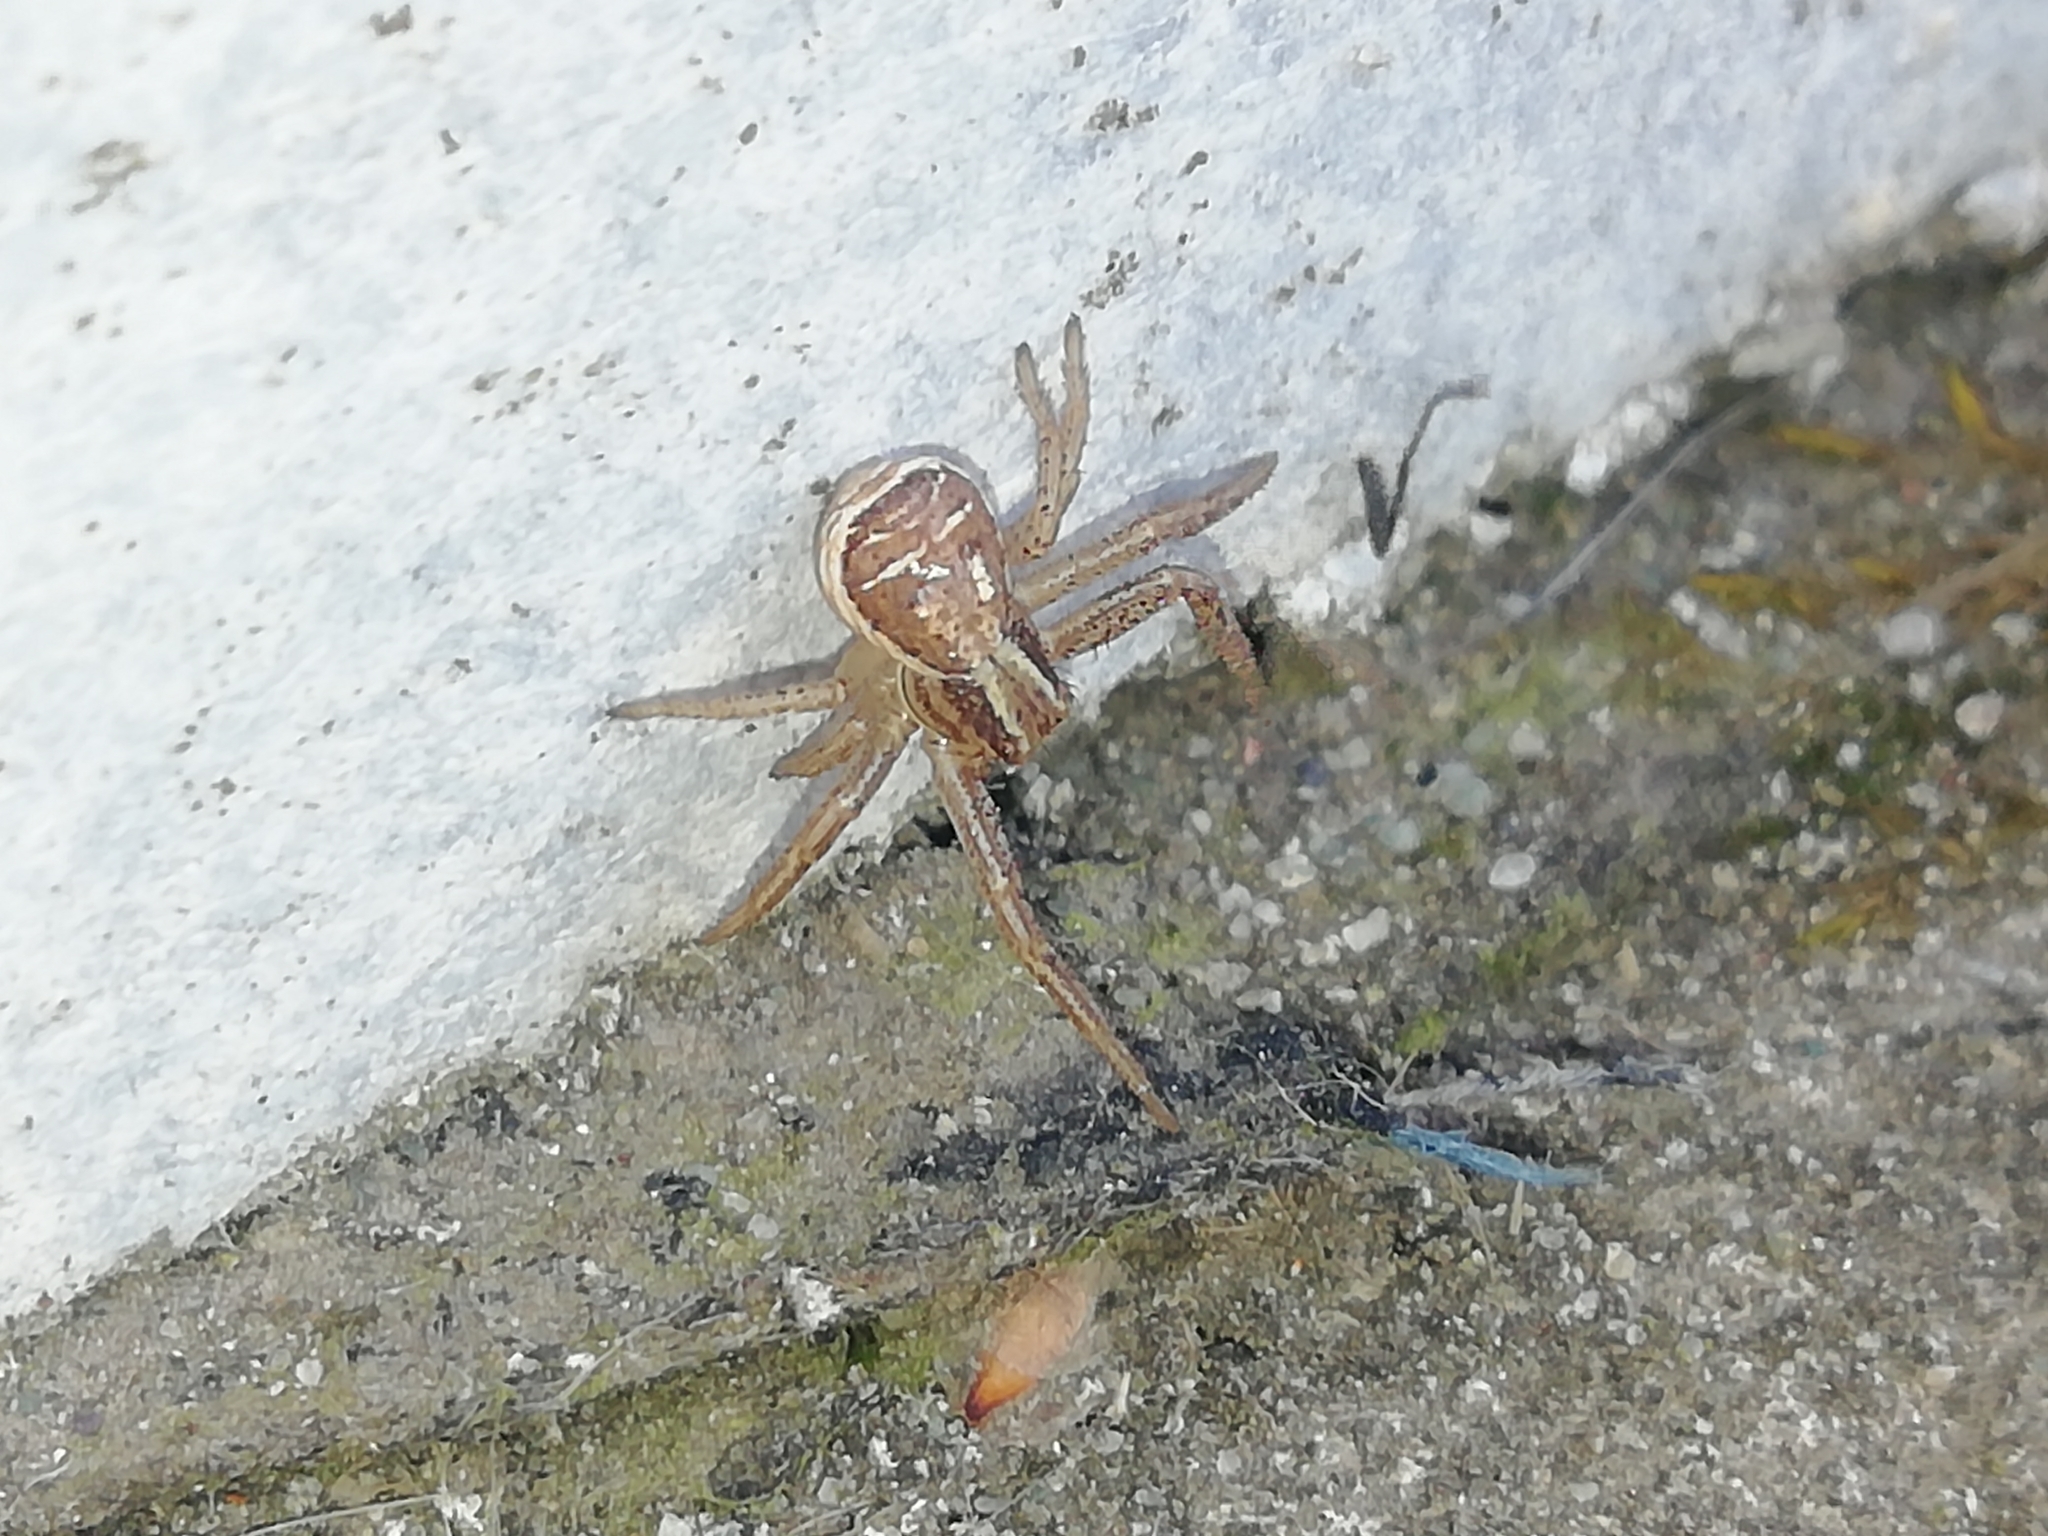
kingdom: Animalia
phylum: Arthropoda
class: Arachnida
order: Araneae
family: Thomisidae
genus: Xysticus
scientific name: Xysticus ulmi
